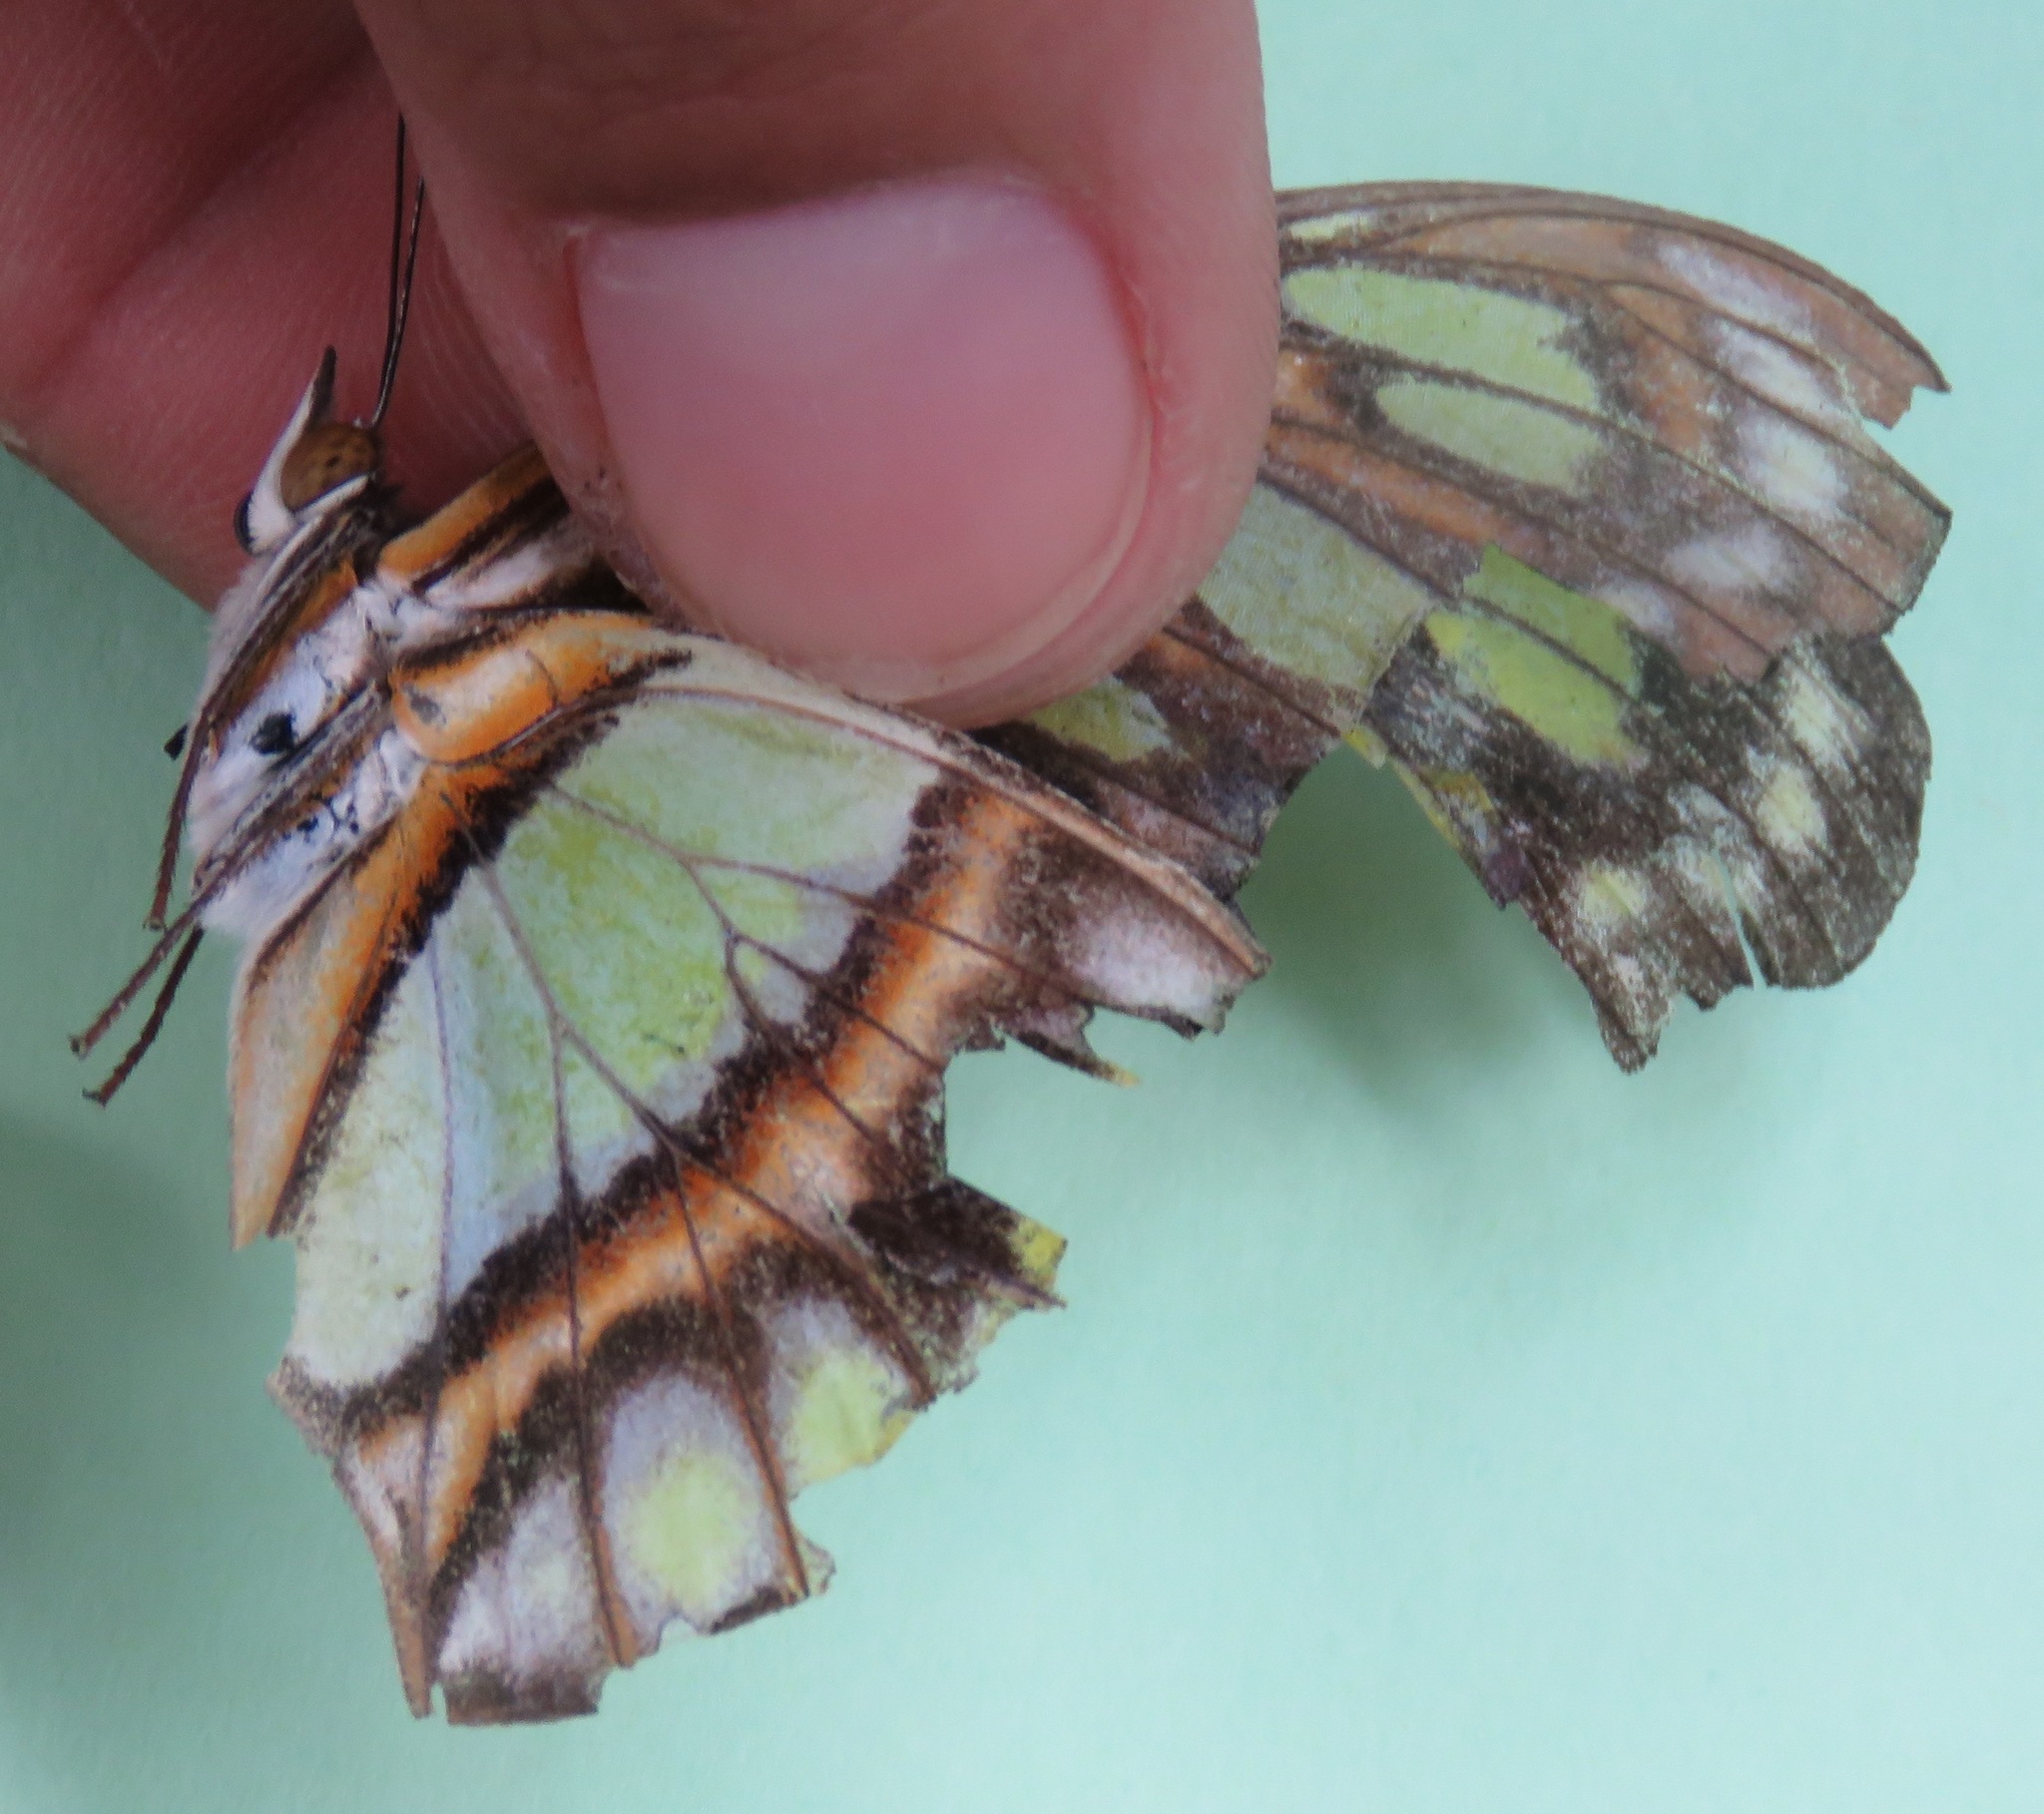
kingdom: Animalia
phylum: Arthropoda
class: Insecta
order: Lepidoptera
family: Nymphalidae
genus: Siproeta
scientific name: Siproeta stelenes
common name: Malachite
